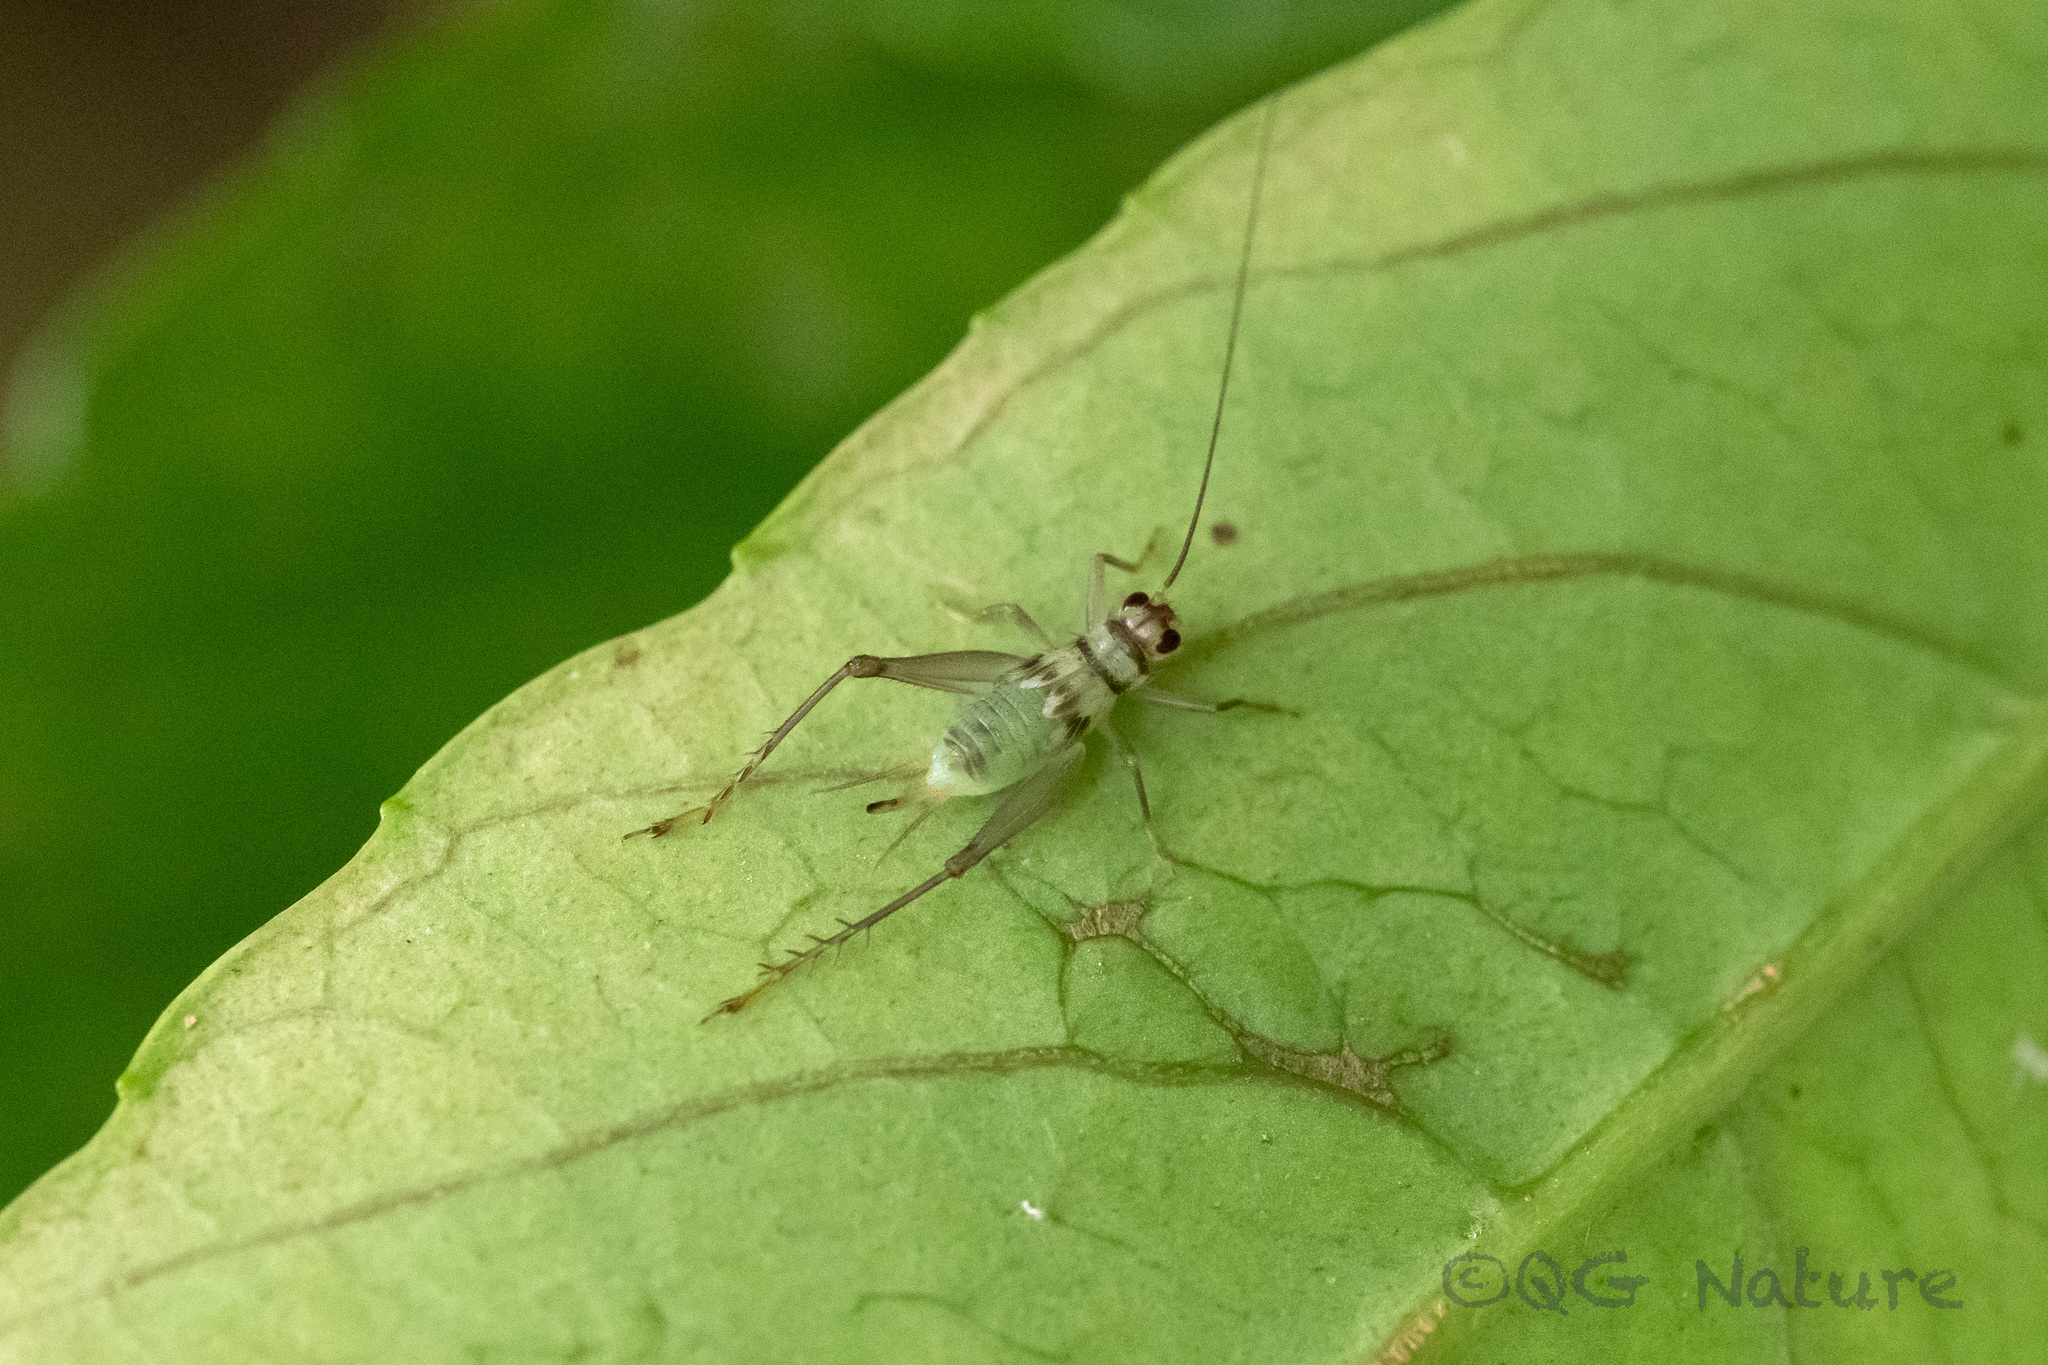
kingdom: Animalia
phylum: Arthropoda
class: Insecta
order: Orthoptera
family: Trigonidiidae
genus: Amusurgus
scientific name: Amusurgus genji
